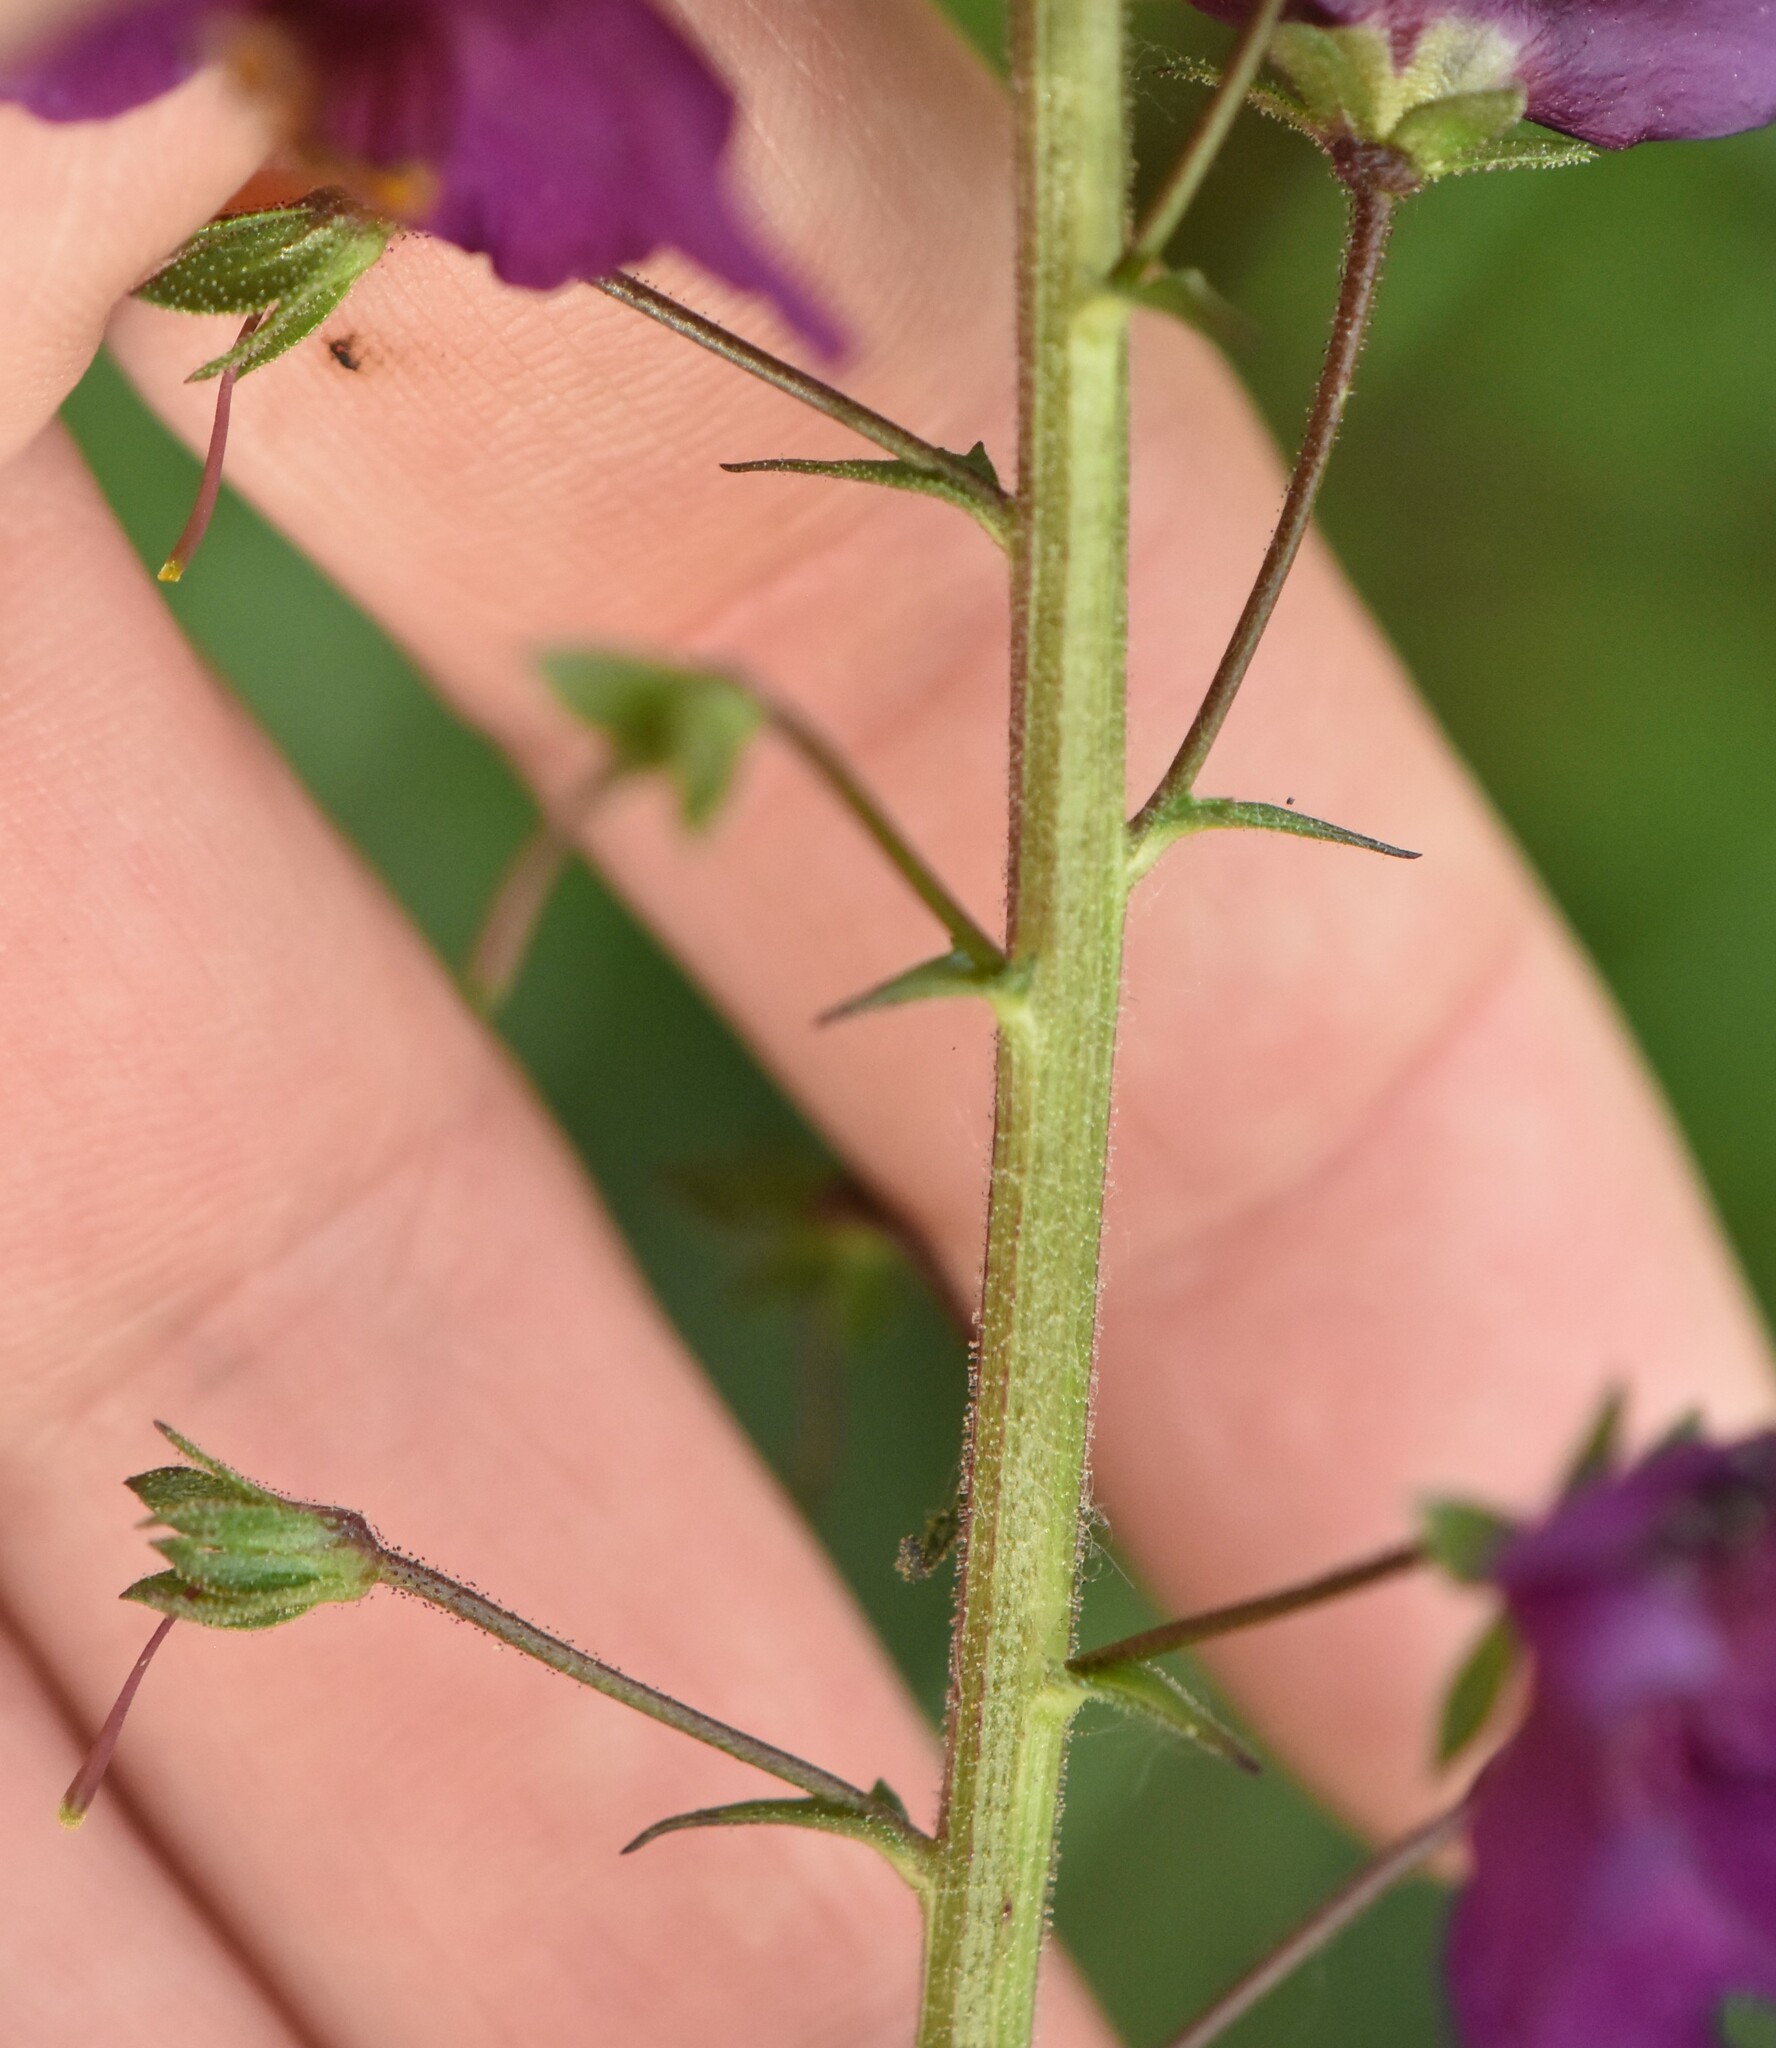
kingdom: Plantae
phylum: Tracheophyta
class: Magnoliopsida
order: Lamiales
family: Scrophulariaceae
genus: Verbascum
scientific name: Verbascum phoeniceum
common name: Purple mullein
